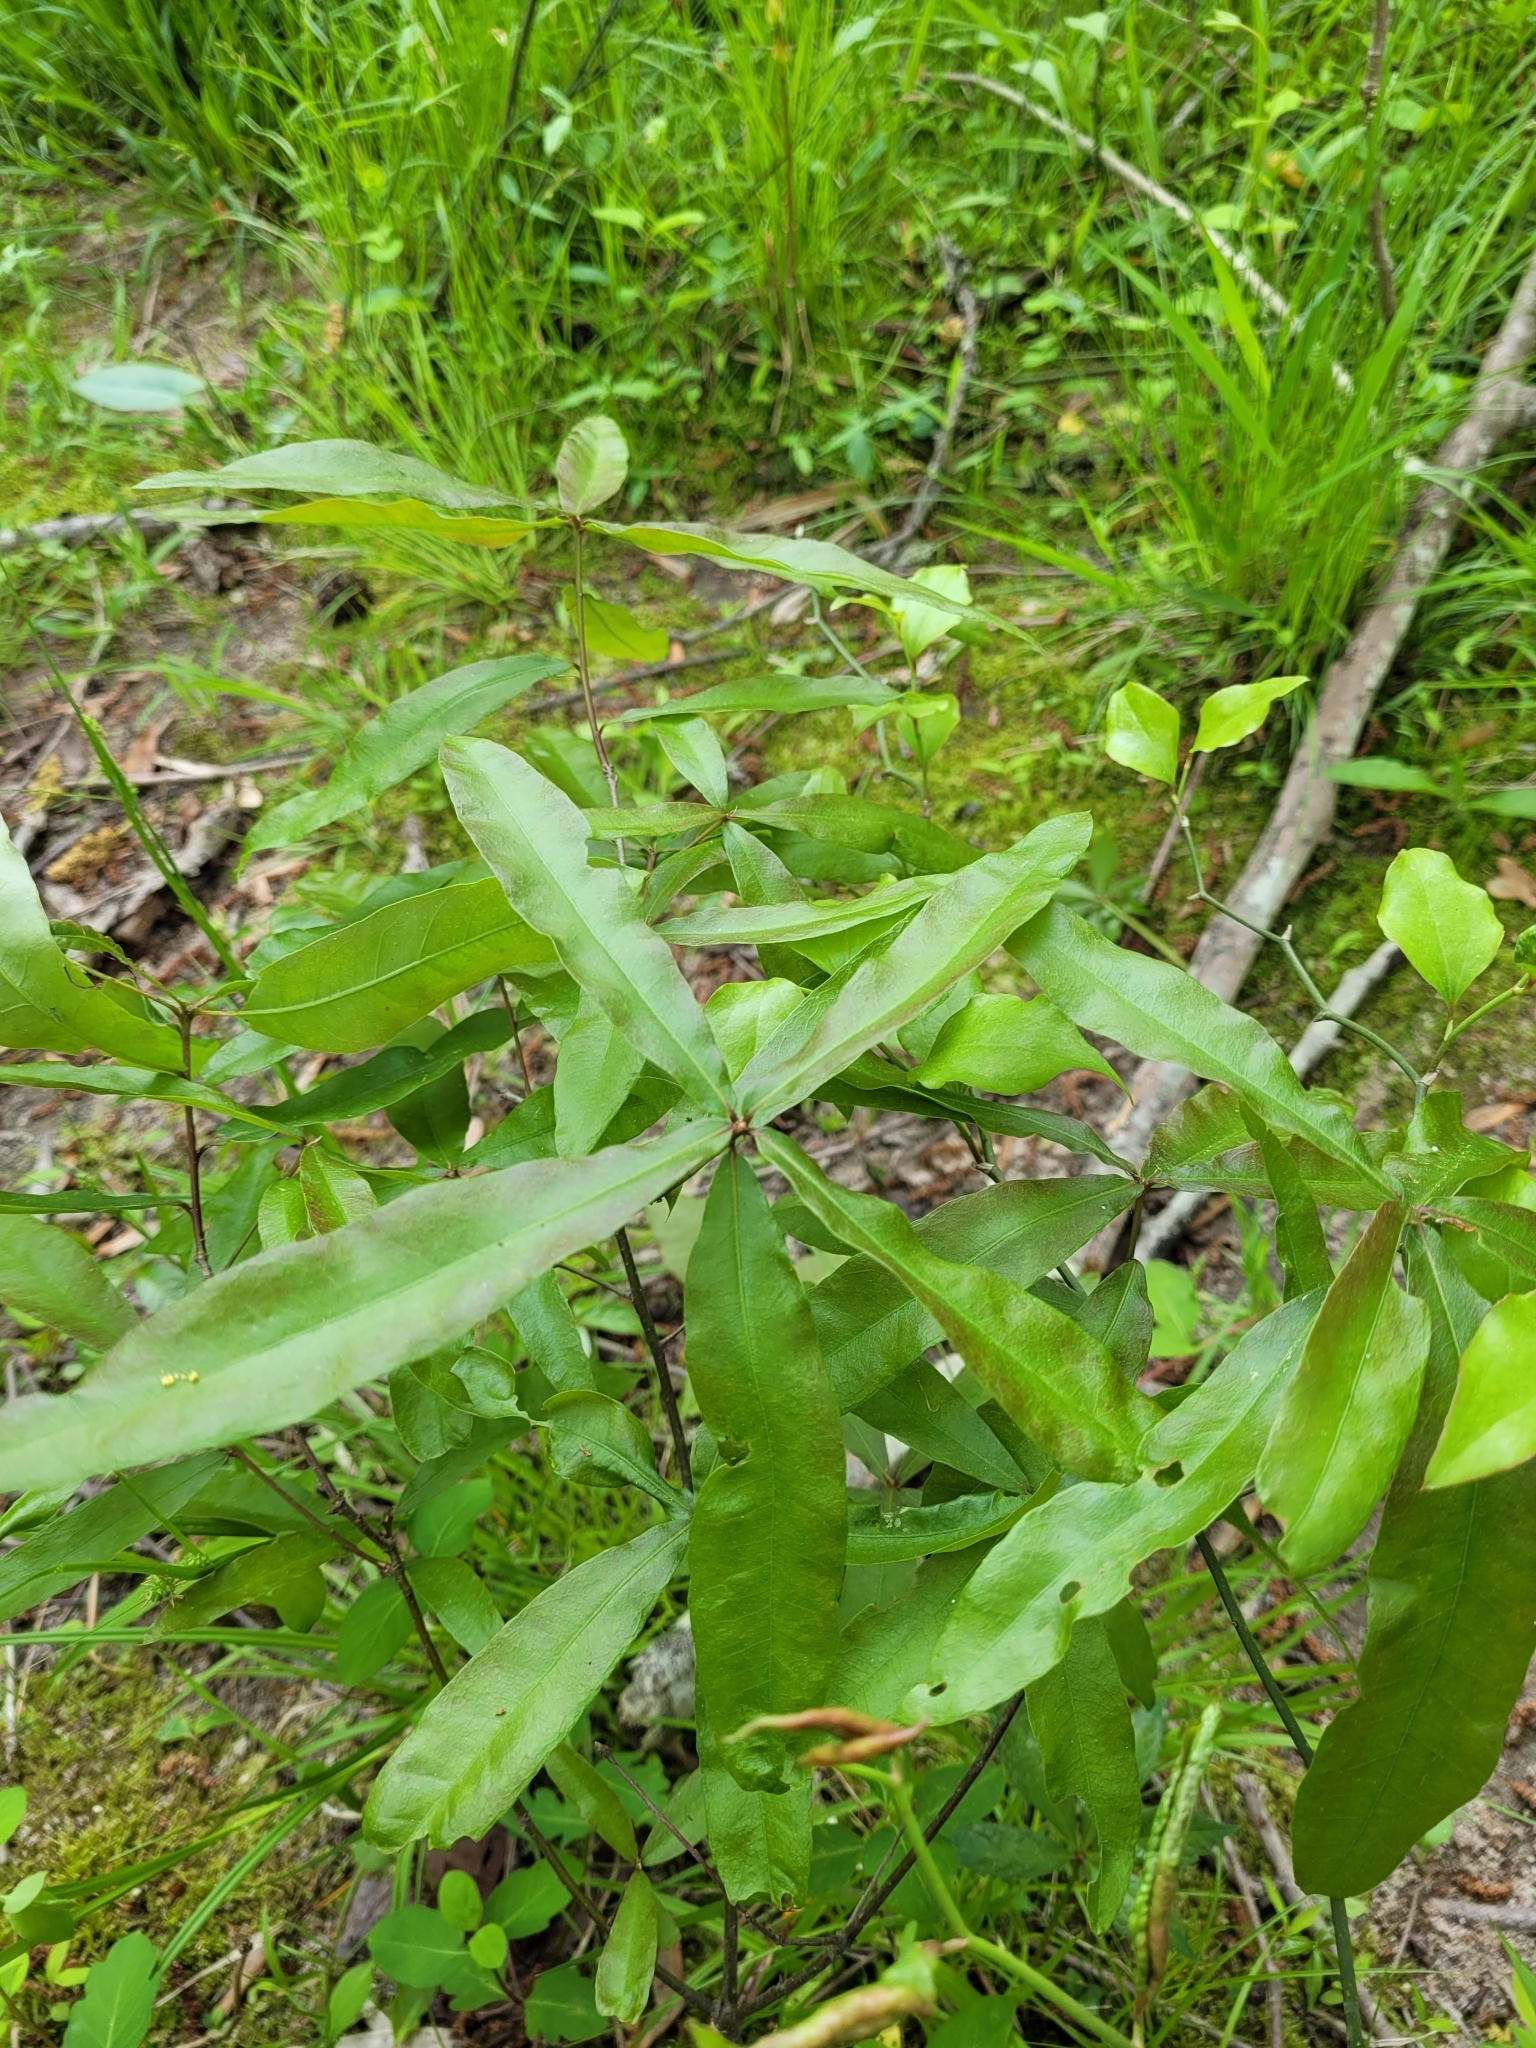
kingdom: Plantae
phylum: Tracheophyta
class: Magnoliopsida
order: Fagales
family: Fagaceae
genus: Quercus
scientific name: Quercus phellos
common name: Willow oak
